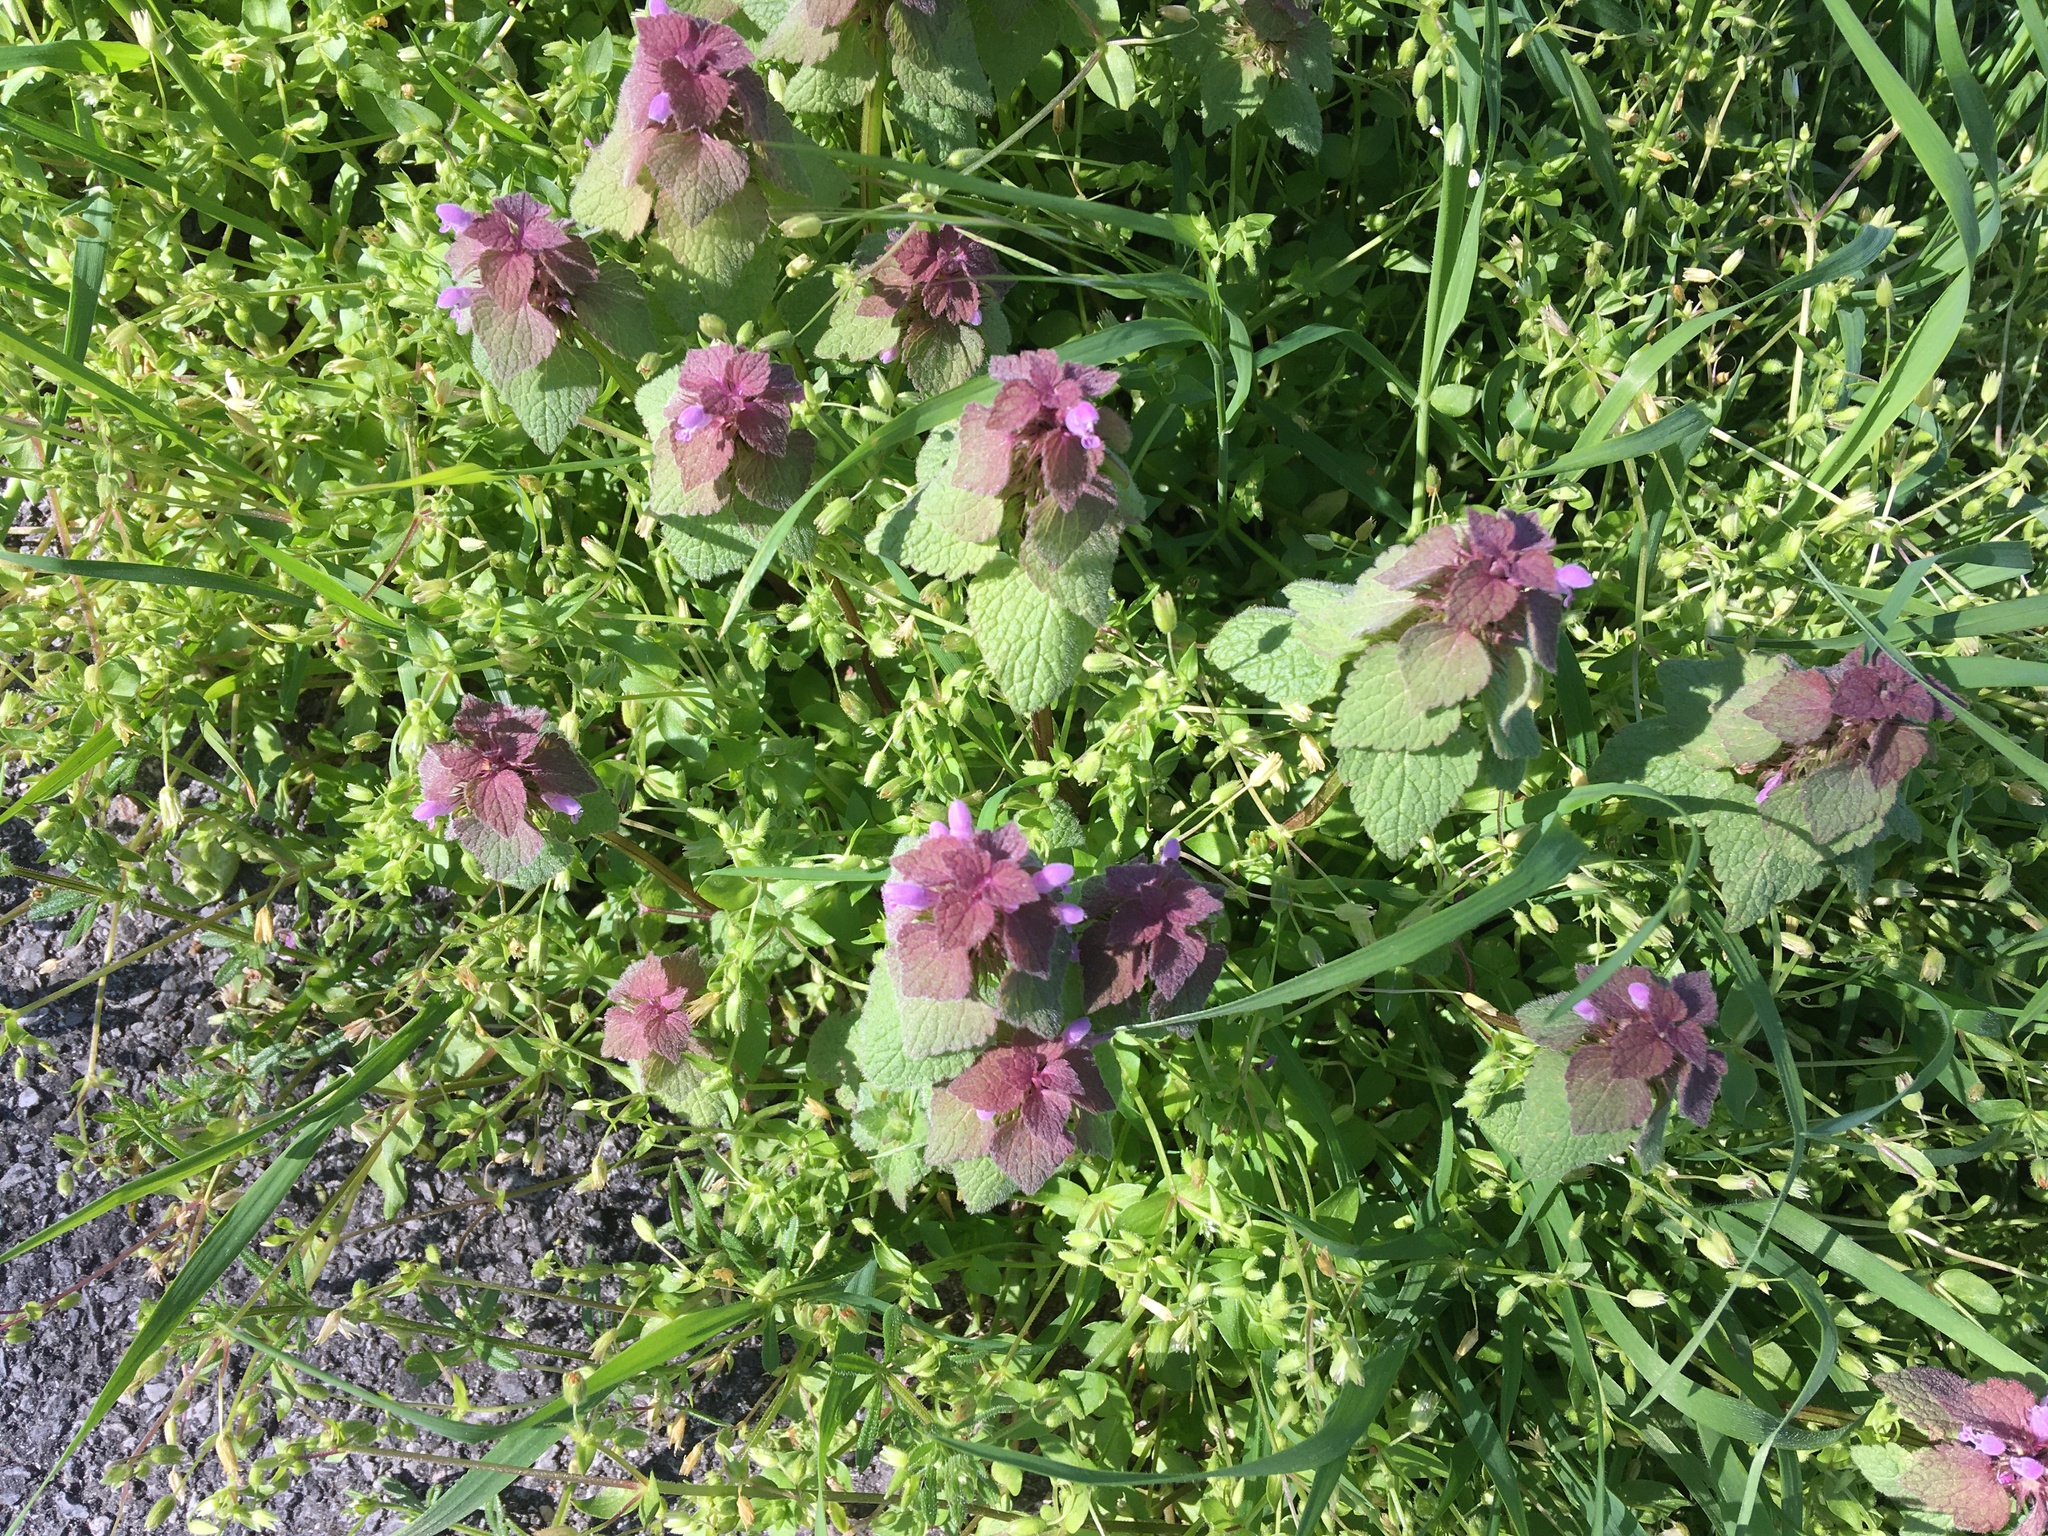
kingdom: Plantae
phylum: Tracheophyta
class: Magnoliopsida
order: Lamiales
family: Lamiaceae
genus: Lamium
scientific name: Lamium purpureum
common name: Red dead-nettle
